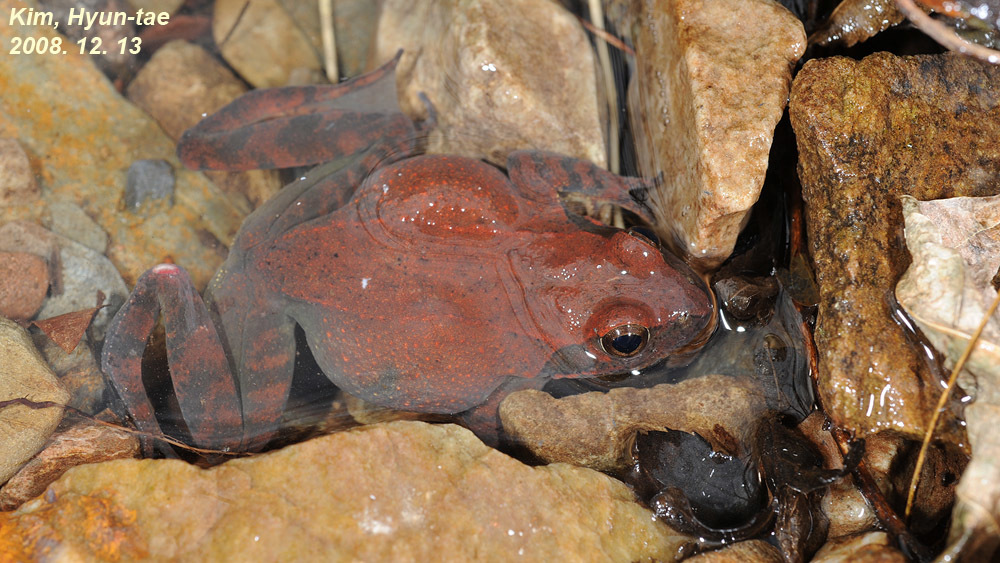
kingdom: Animalia
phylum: Chordata
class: Amphibia
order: Anura
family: Ranidae
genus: Rana
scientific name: Rana huanrenensis
